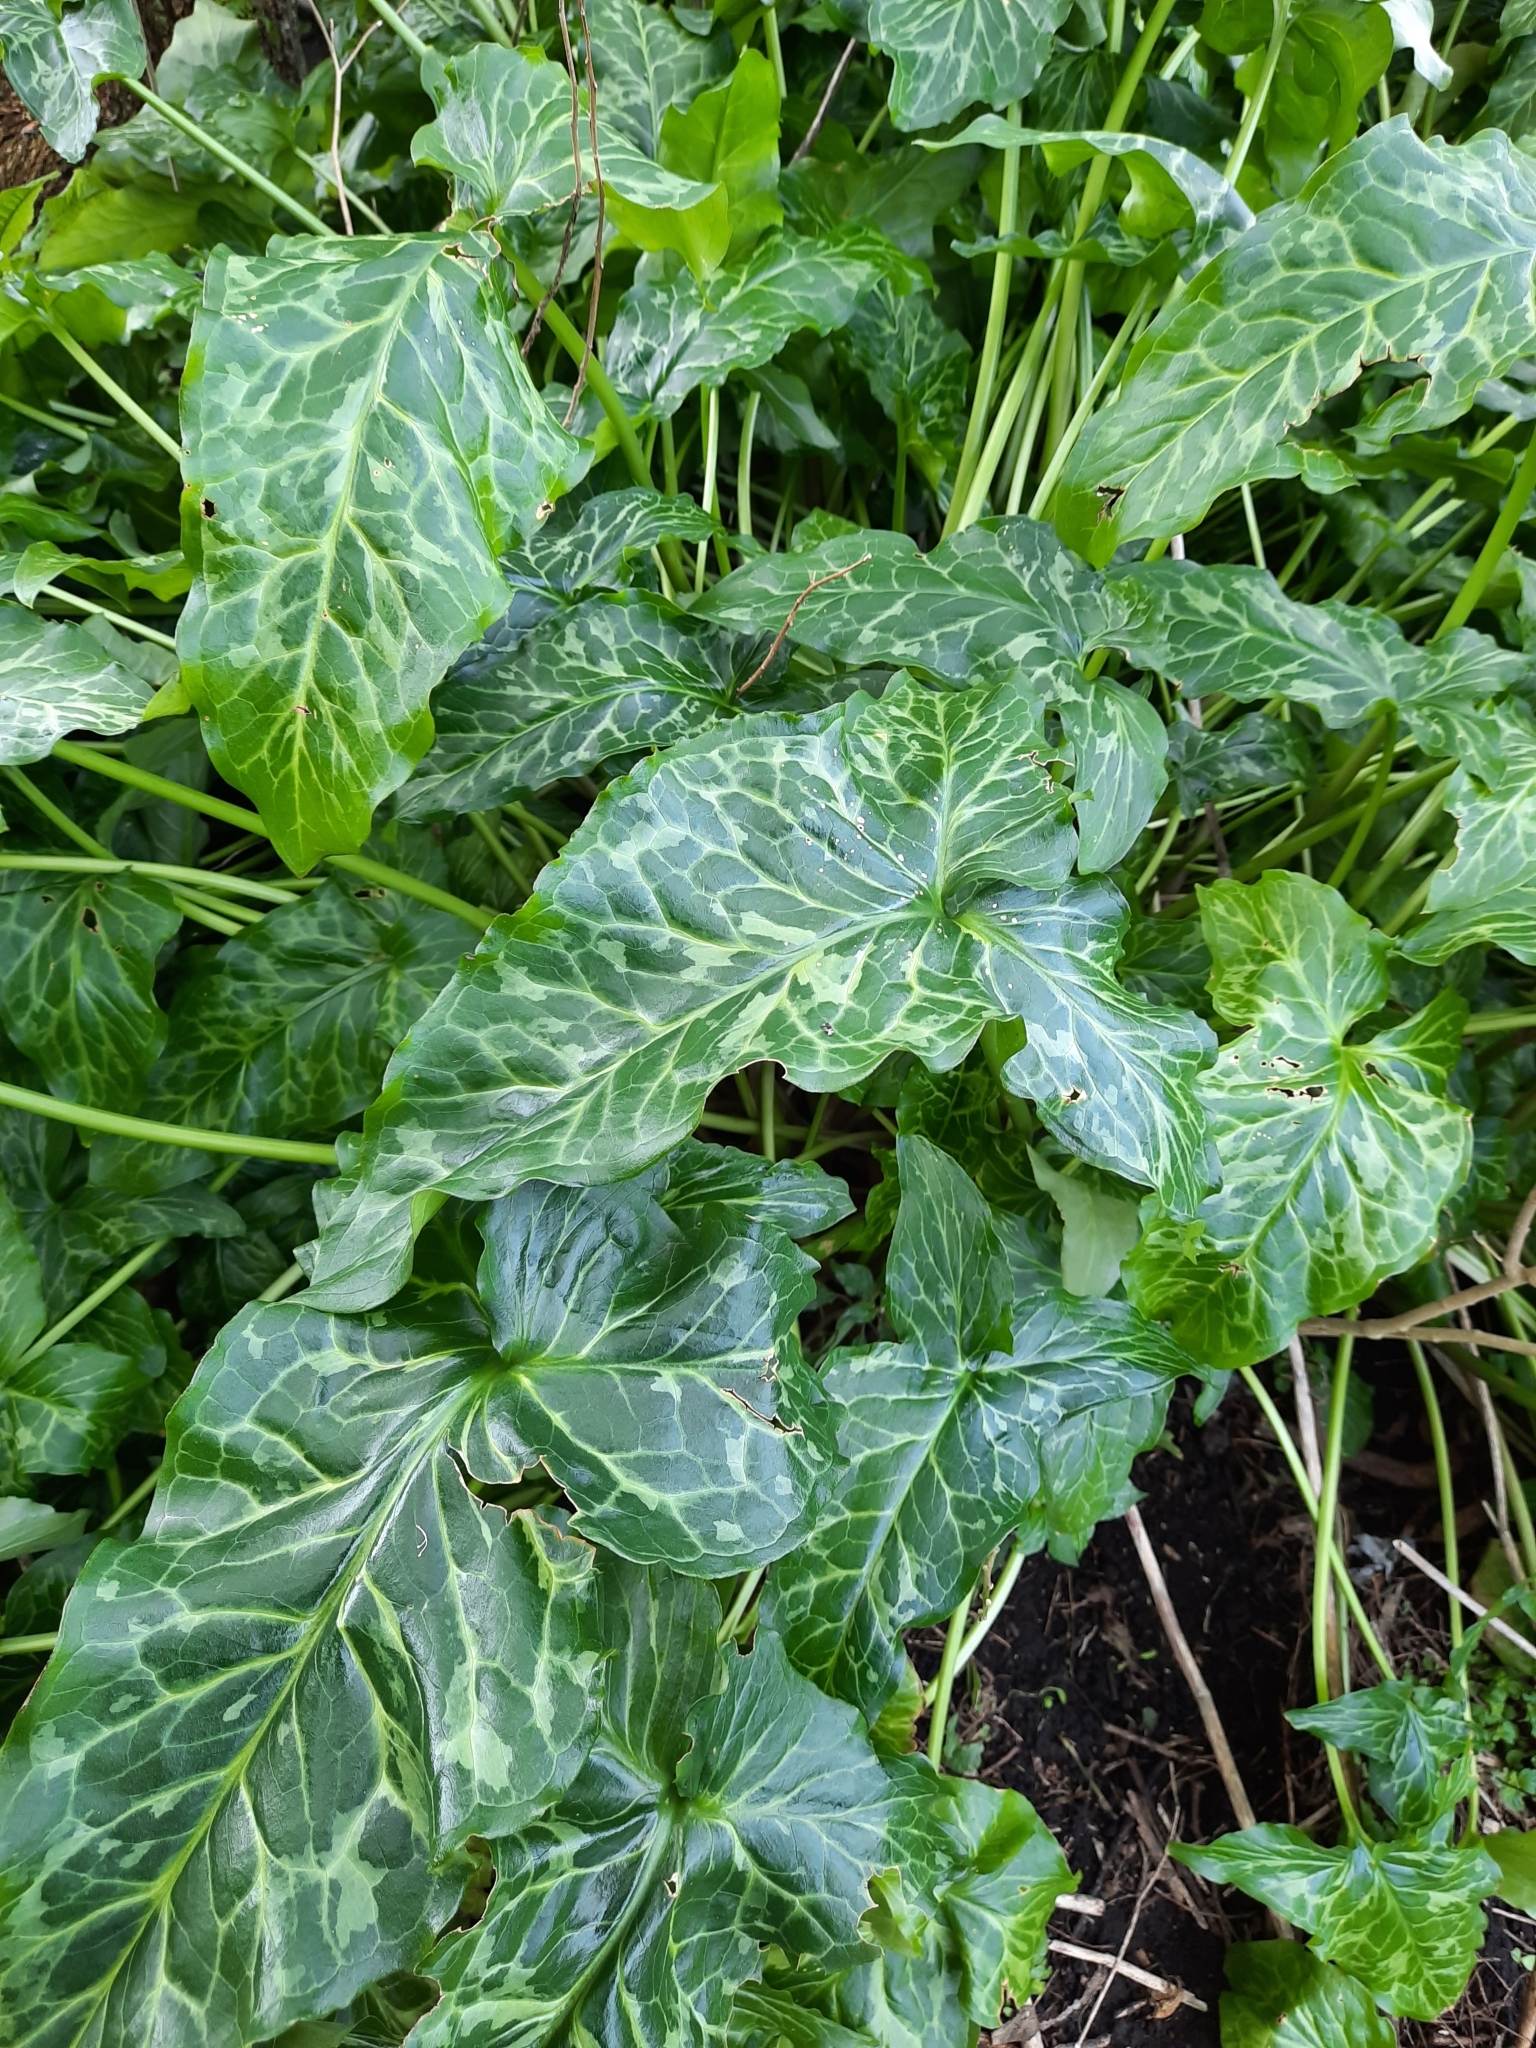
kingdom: Plantae
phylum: Tracheophyta
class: Liliopsida
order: Alismatales
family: Araceae
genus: Arum
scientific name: Arum italicum
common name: Italian lords-and-ladies
